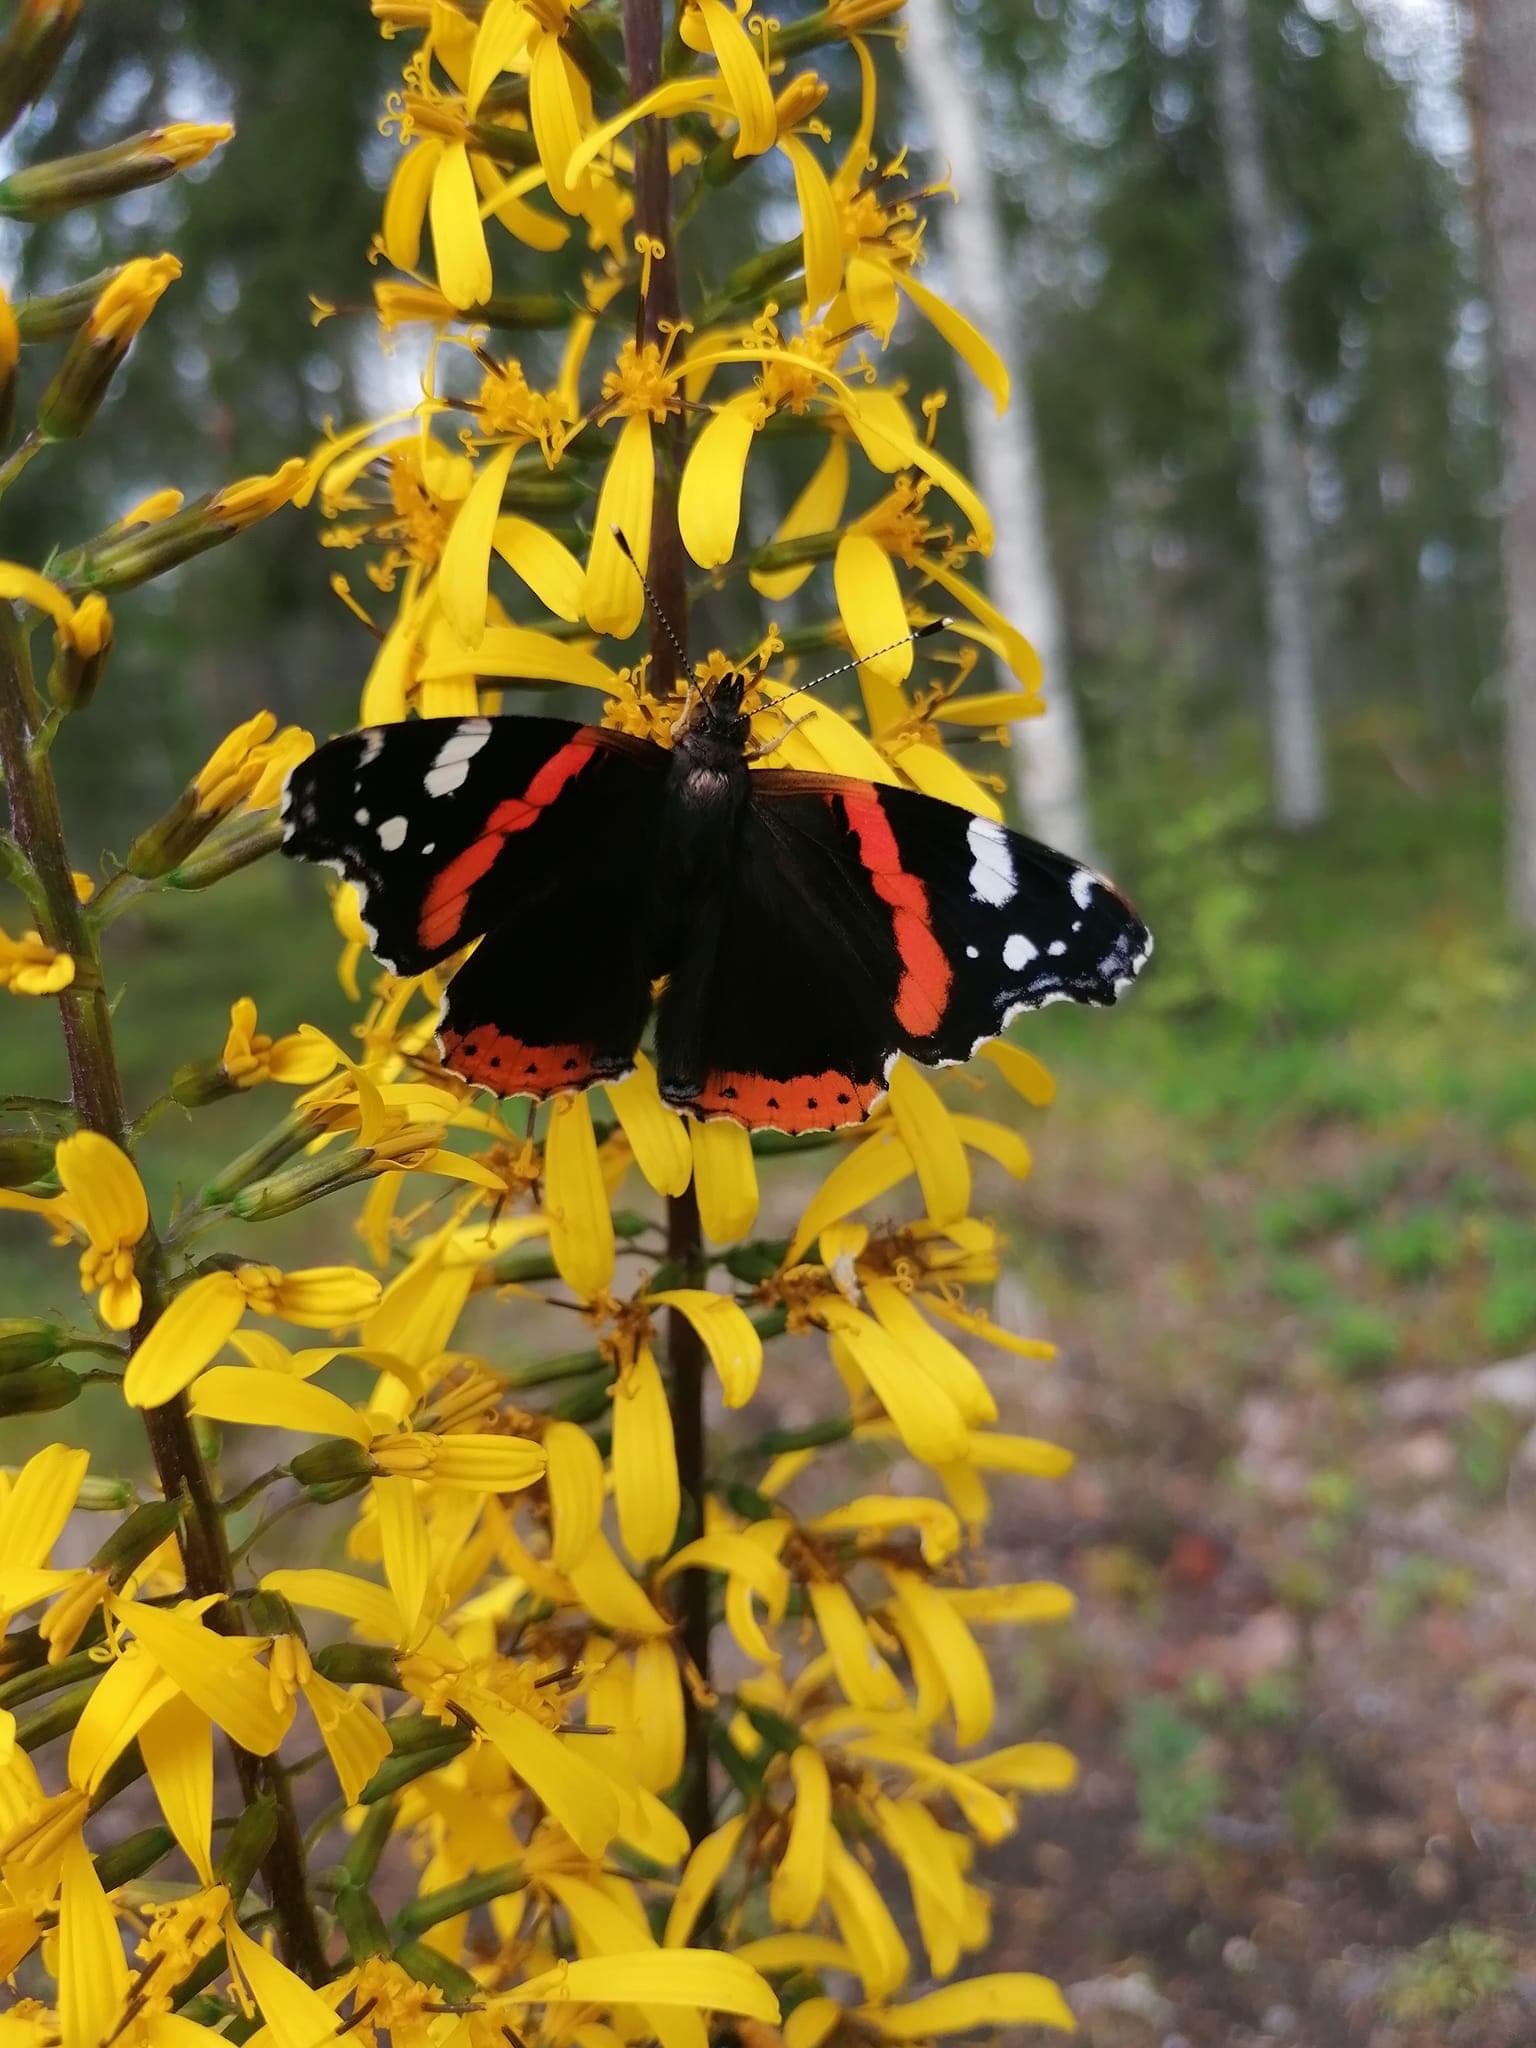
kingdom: Animalia
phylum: Arthropoda
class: Insecta
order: Lepidoptera
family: Nymphalidae
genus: Vanessa
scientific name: Vanessa atalanta
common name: Red admiral
